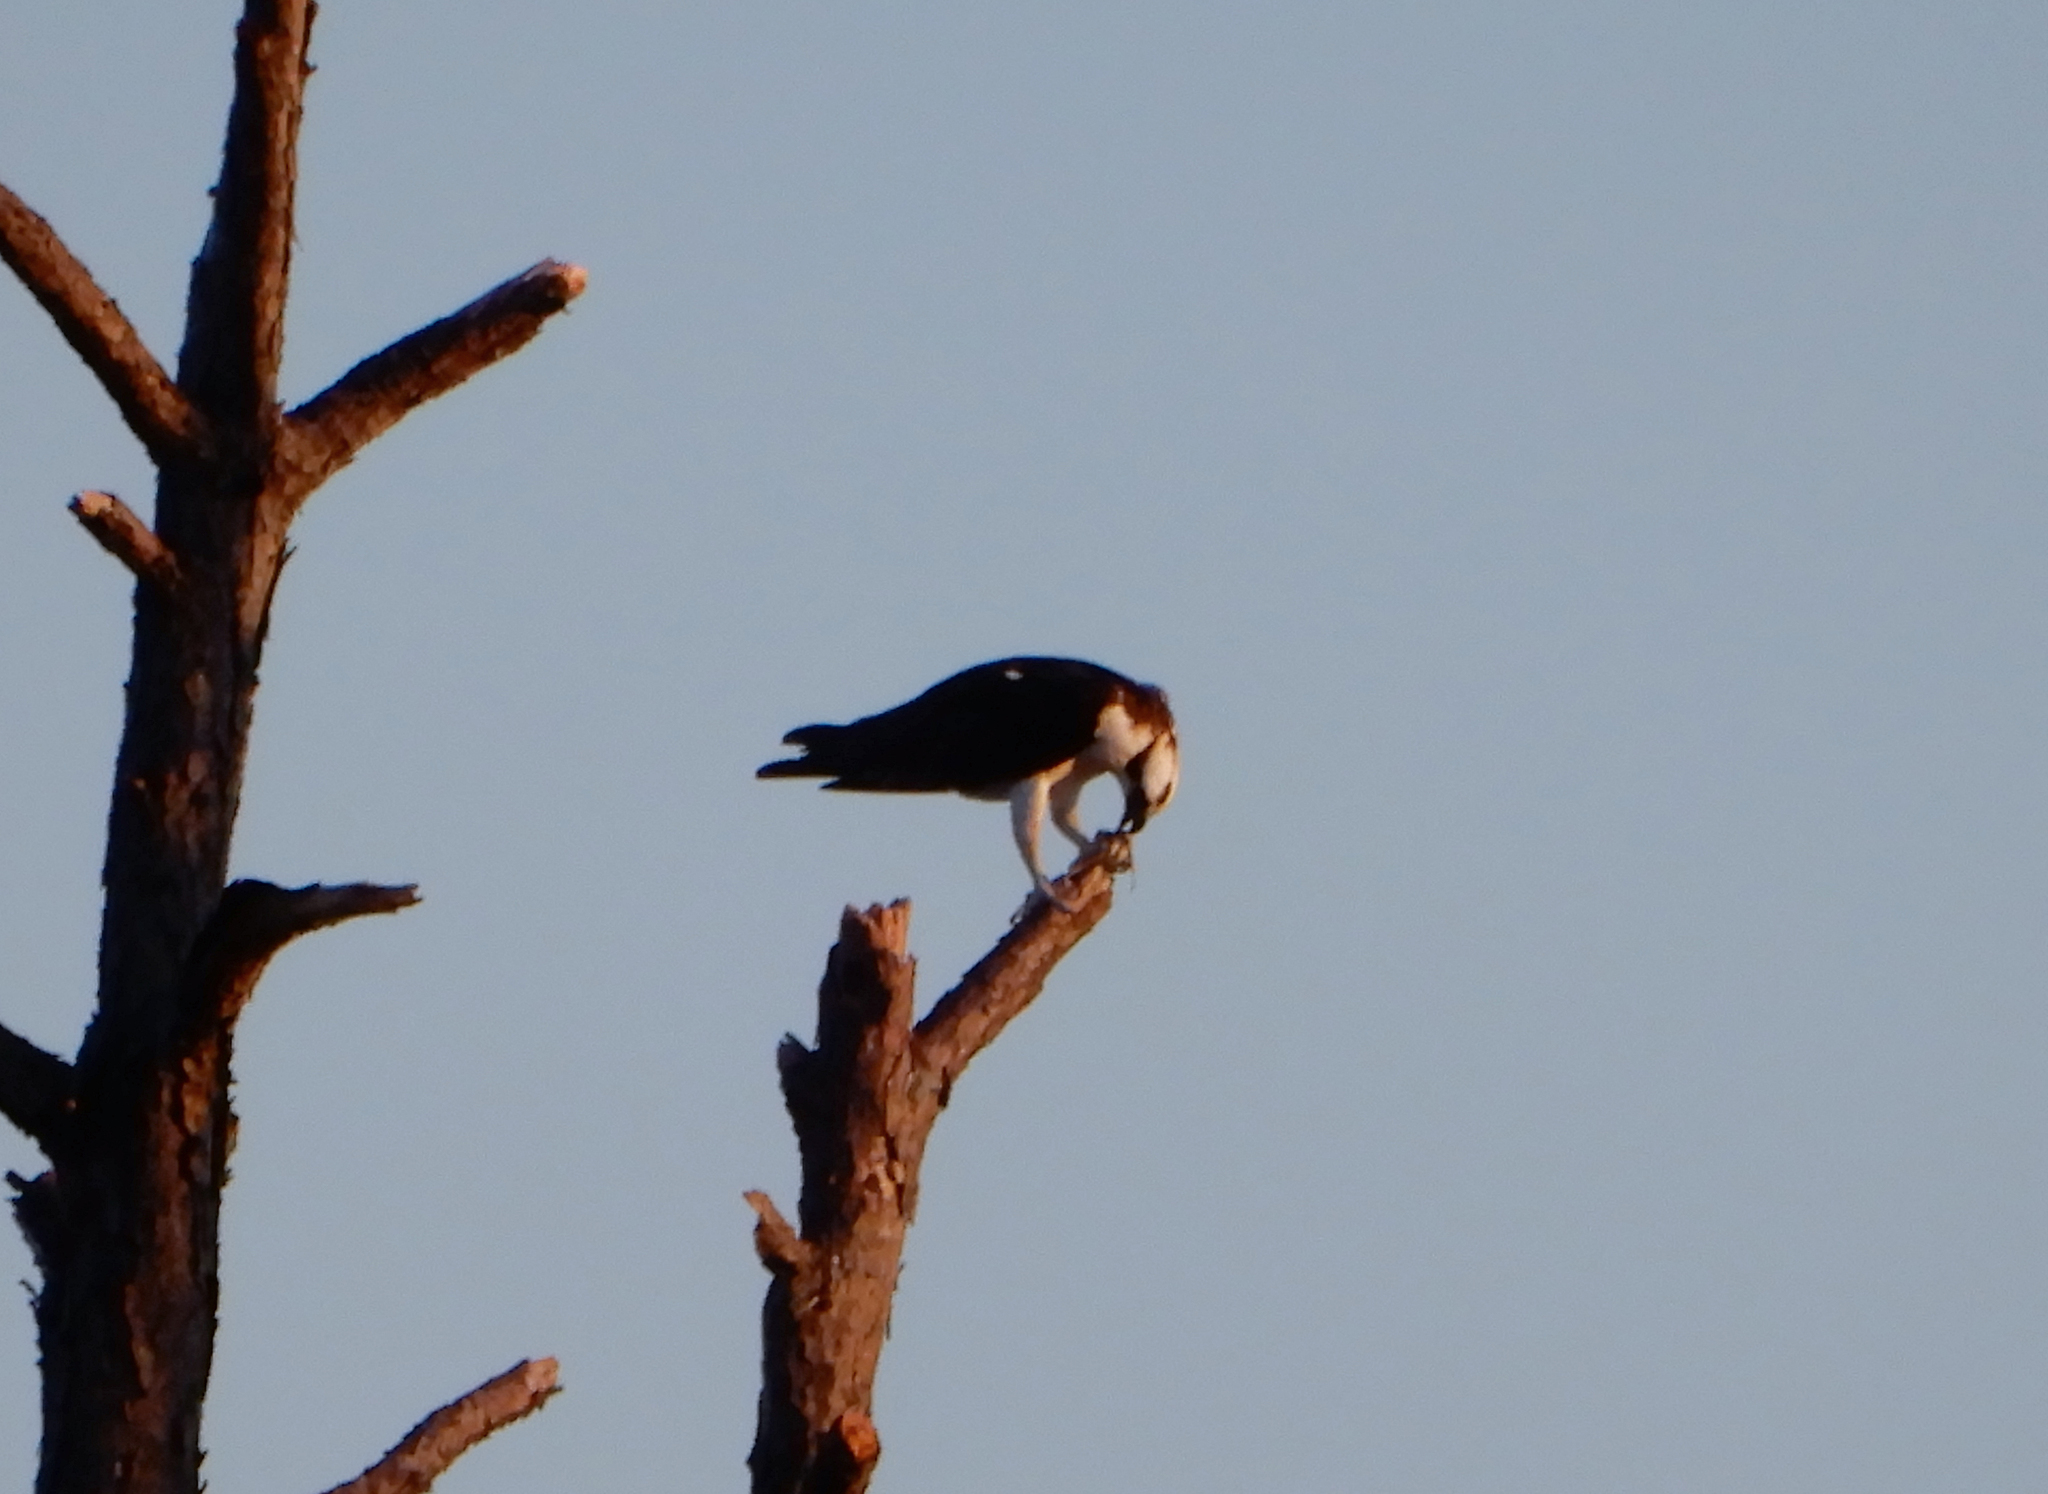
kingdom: Animalia
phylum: Chordata
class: Aves
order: Accipitriformes
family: Pandionidae
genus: Pandion
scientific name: Pandion haliaetus
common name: Osprey
